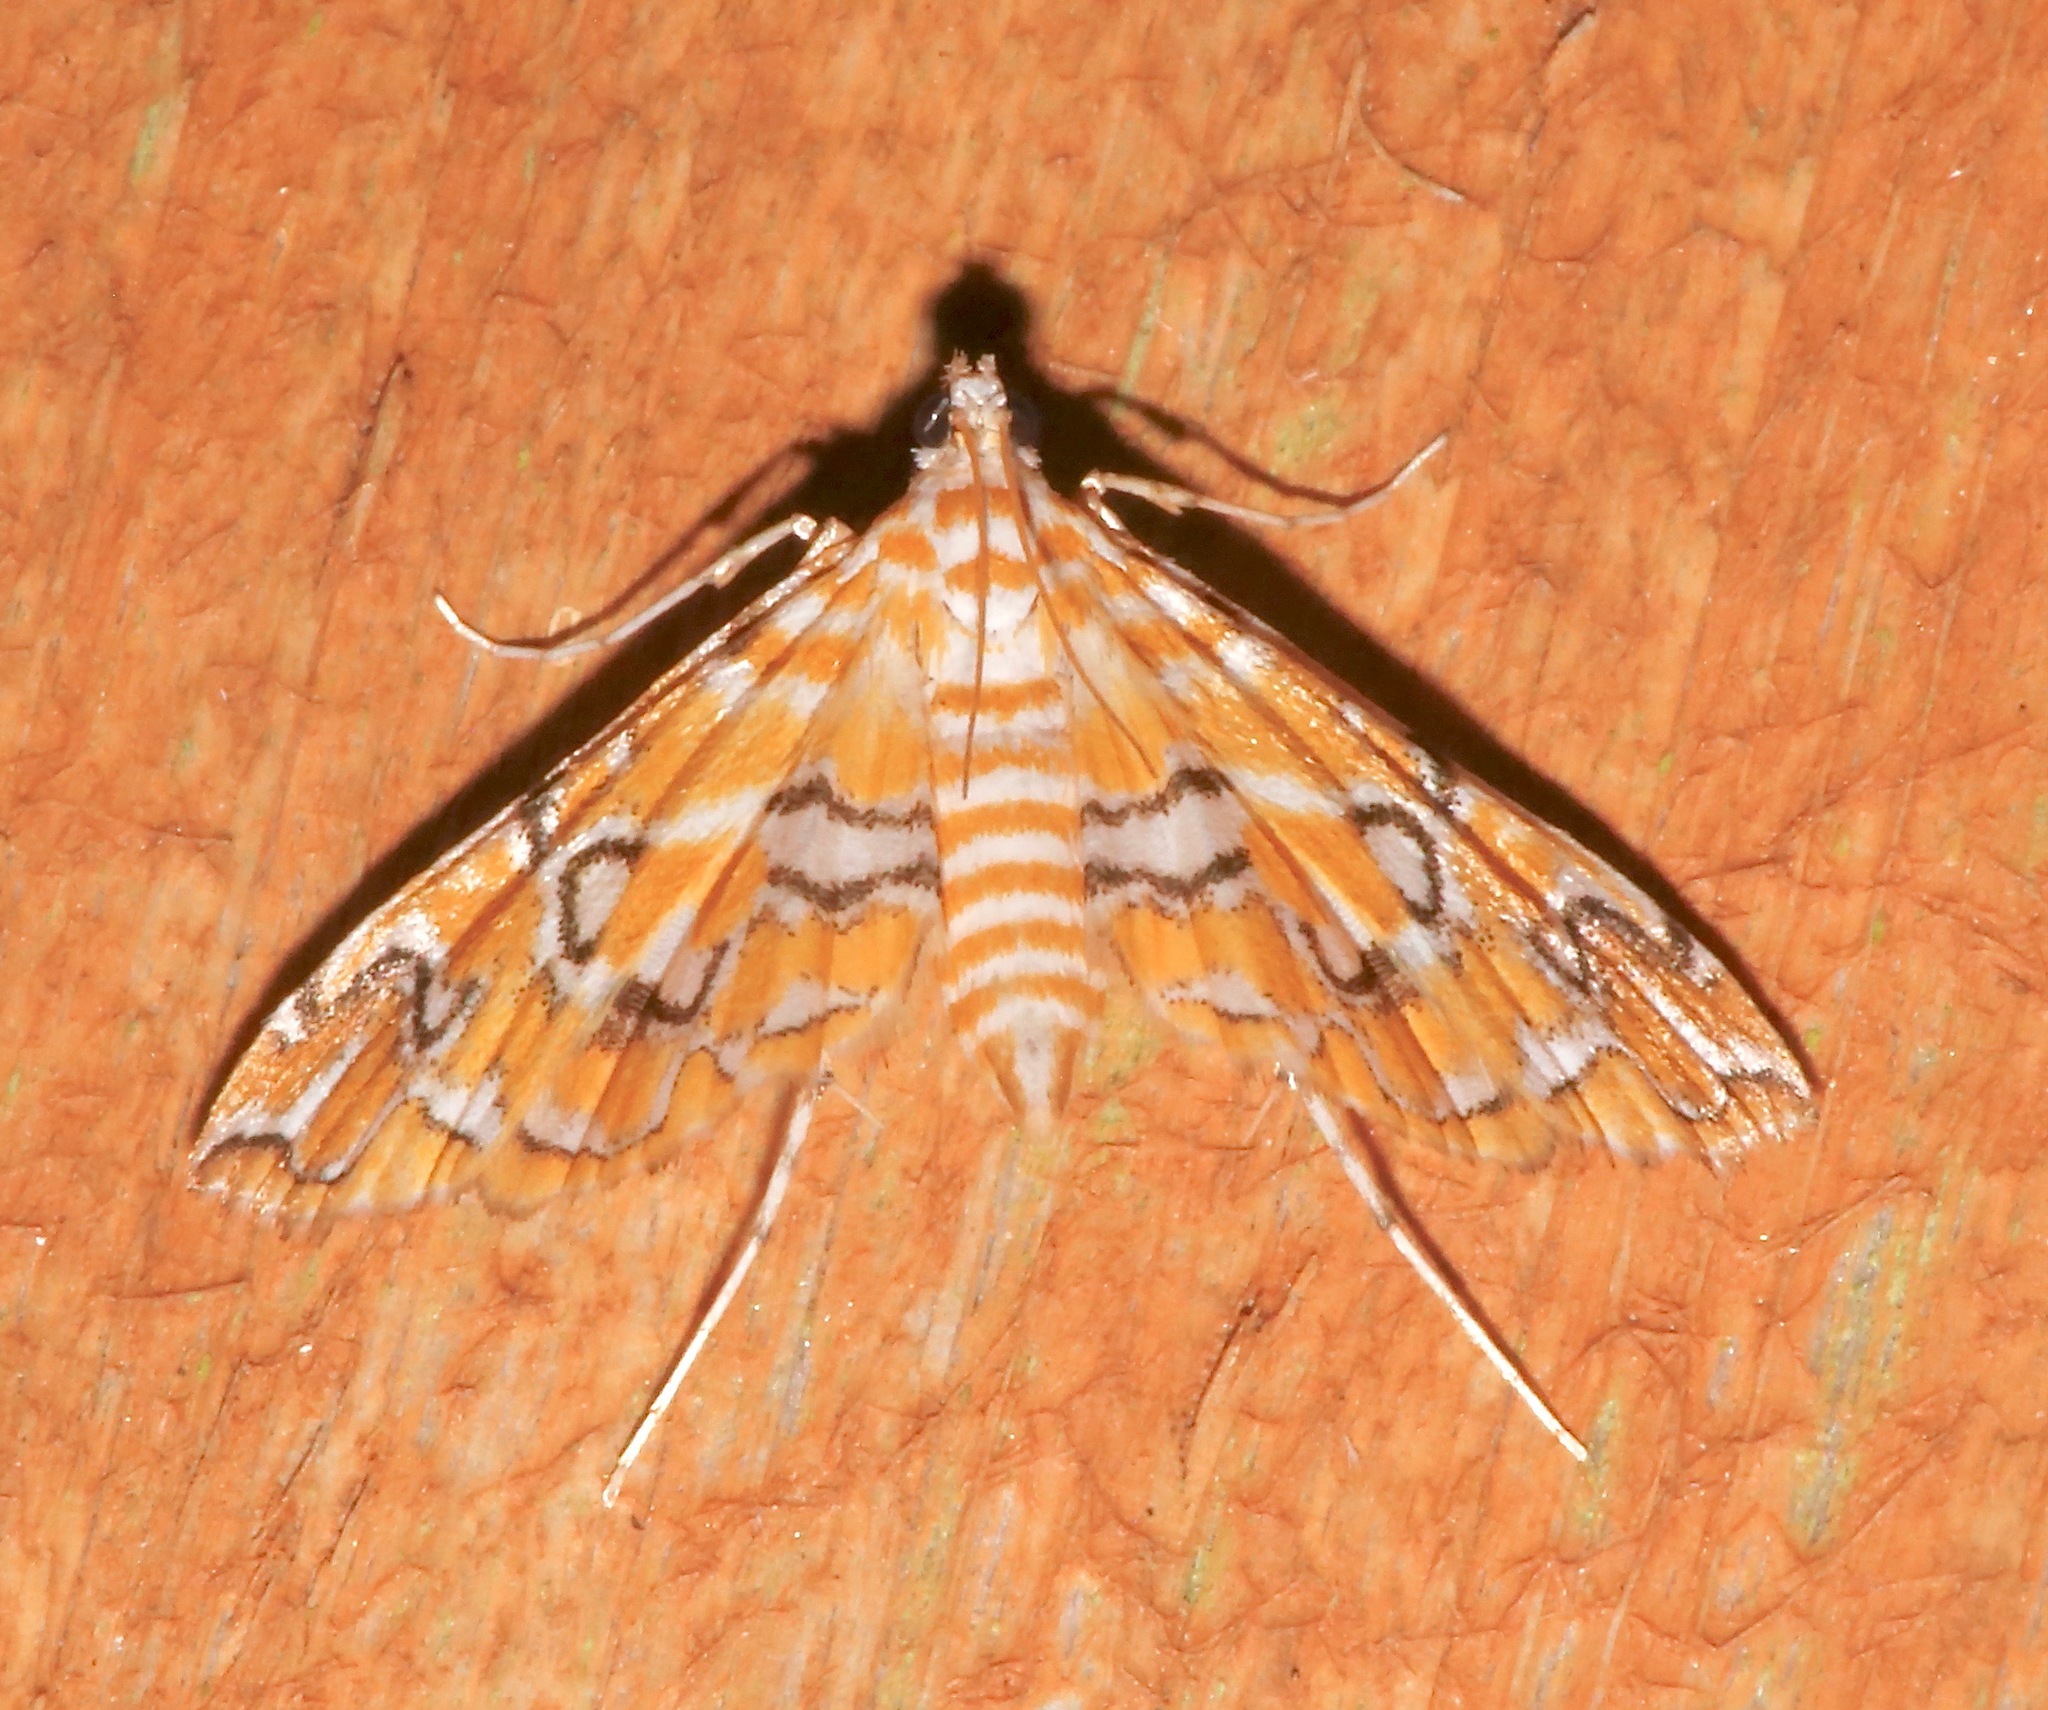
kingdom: Animalia
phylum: Arthropoda
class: Insecta
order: Lepidoptera
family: Crambidae
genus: Elophila
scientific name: Elophila icciusalis
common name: Pondside pyralid moth
